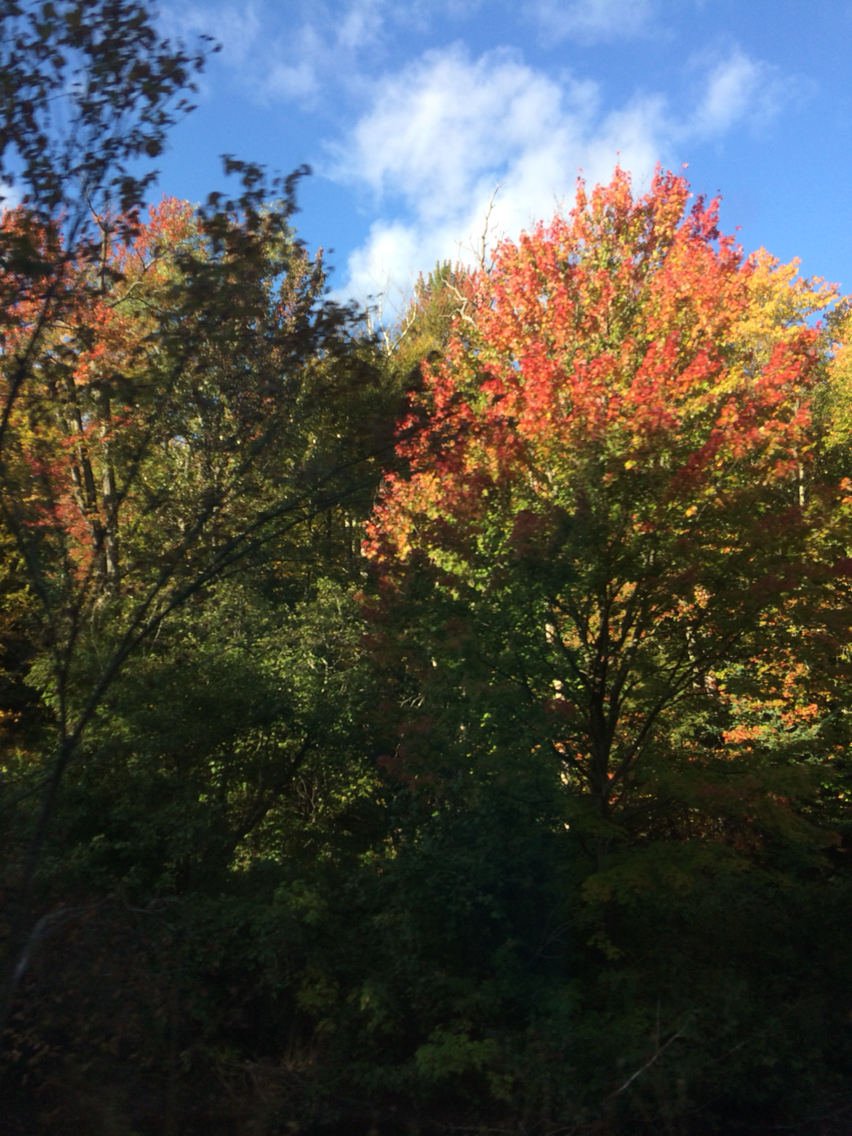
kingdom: Plantae
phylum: Tracheophyta
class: Magnoliopsida
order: Sapindales
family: Sapindaceae
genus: Acer
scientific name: Acer rubrum
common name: Red maple
